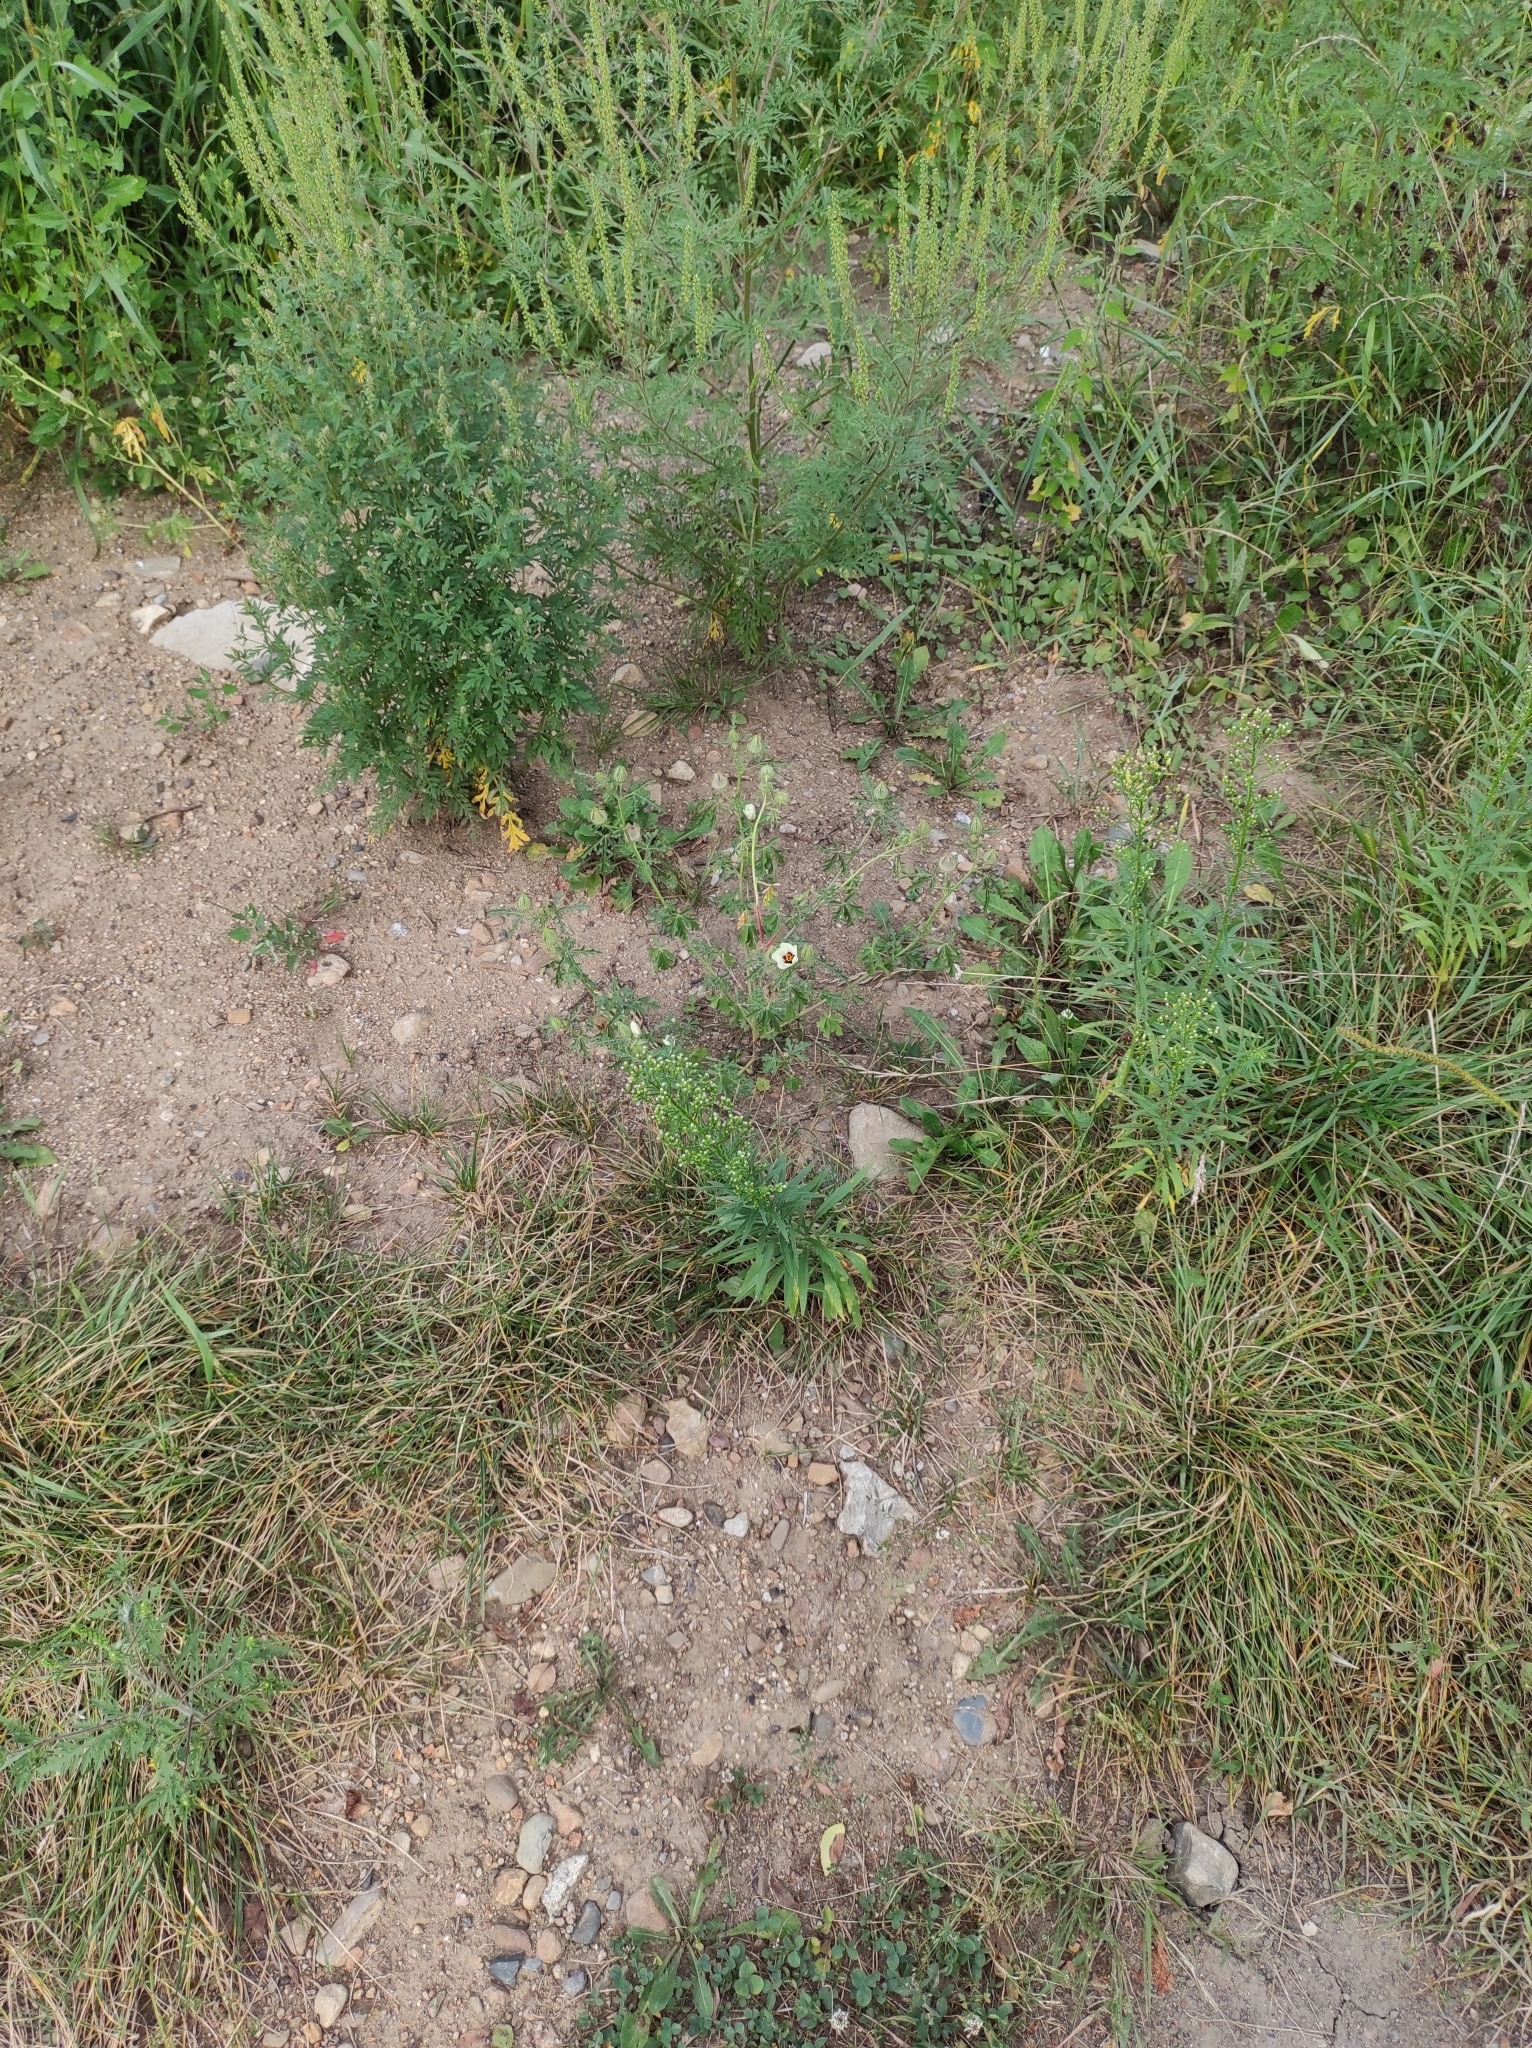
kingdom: Plantae
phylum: Tracheophyta
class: Magnoliopsida
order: Malvales
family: Malvaceae
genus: Hibiscus
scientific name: Hibiscus trionum
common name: Bladder ketmia
